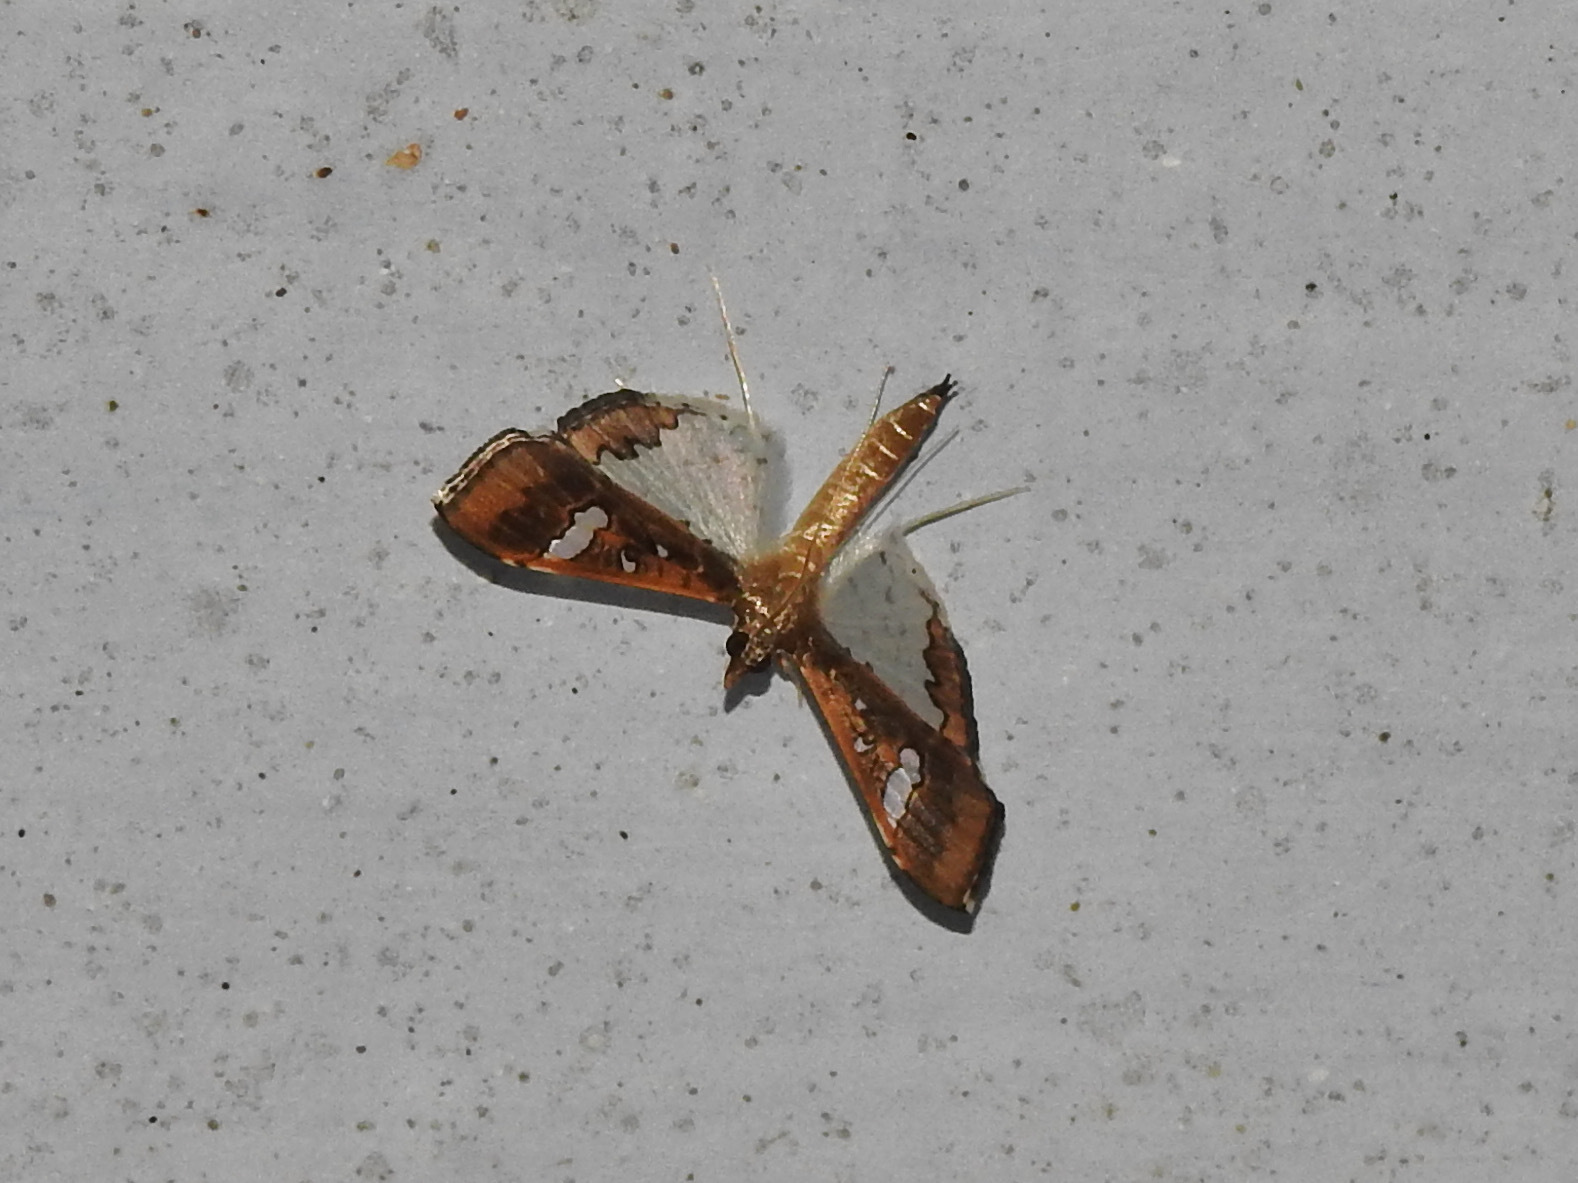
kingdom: Animalia
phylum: Arthropoda
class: Insecta
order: Lepidoptera
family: Crambidae
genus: Maruca
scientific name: Maruca vitrata
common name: Maruca pod borer
